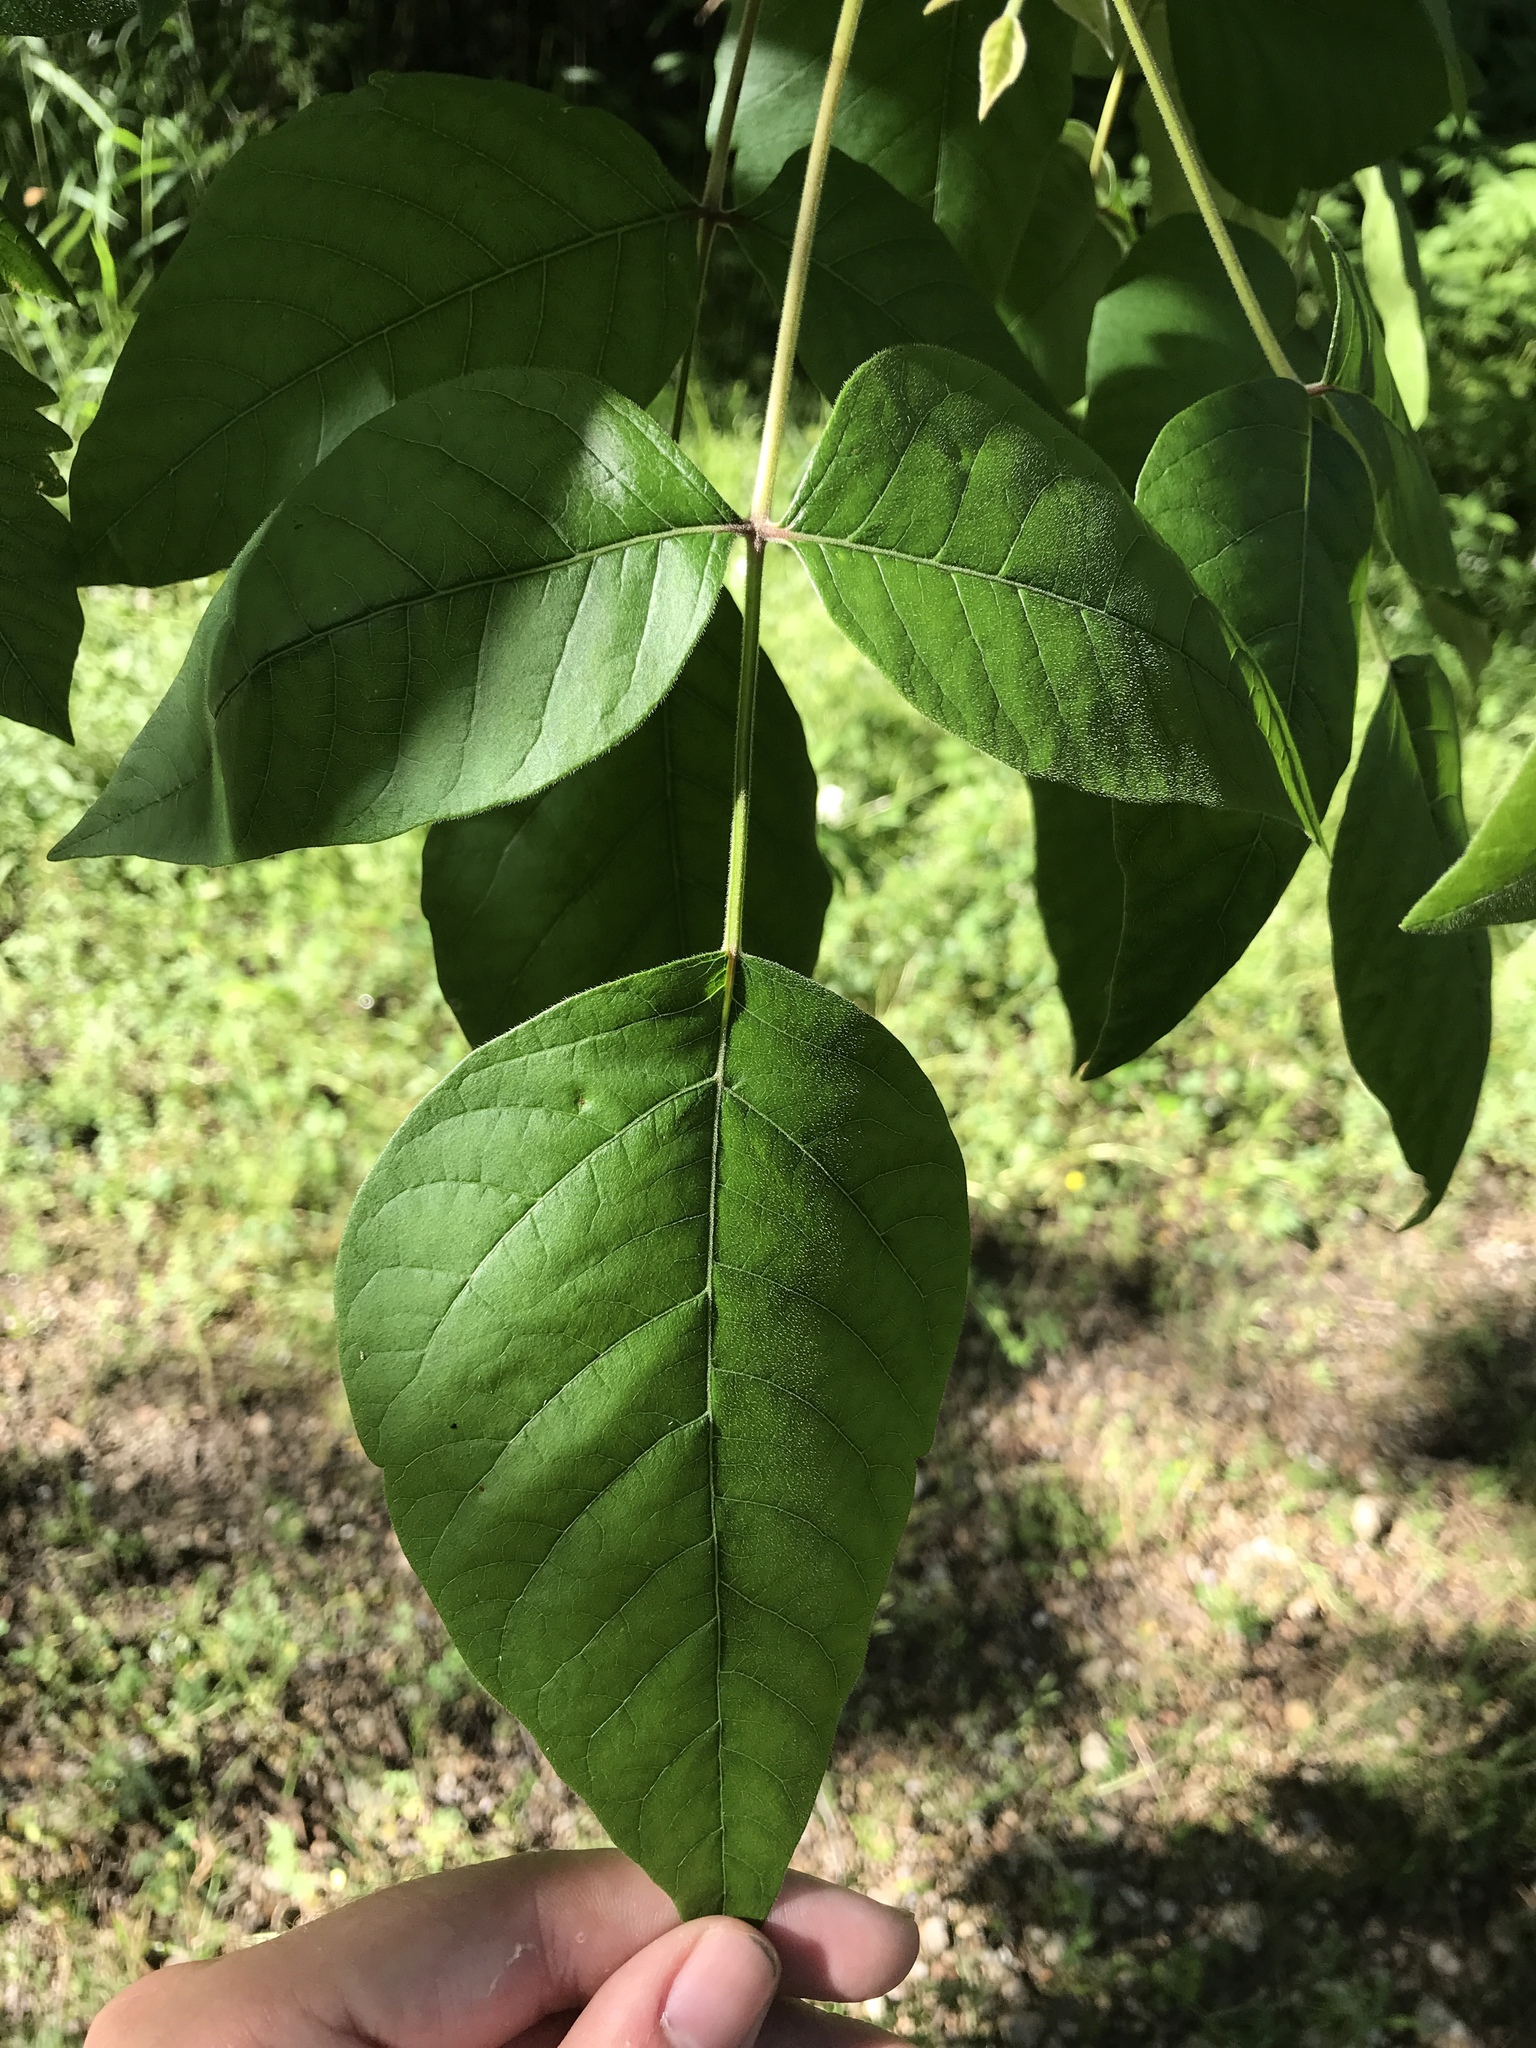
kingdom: Plantae
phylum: Tracheophyta
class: Magnoliopsida
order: Sapindales
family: Anacardiaceae
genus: Toxicodendron
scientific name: Toxicodendron radicans
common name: Poison ivy
